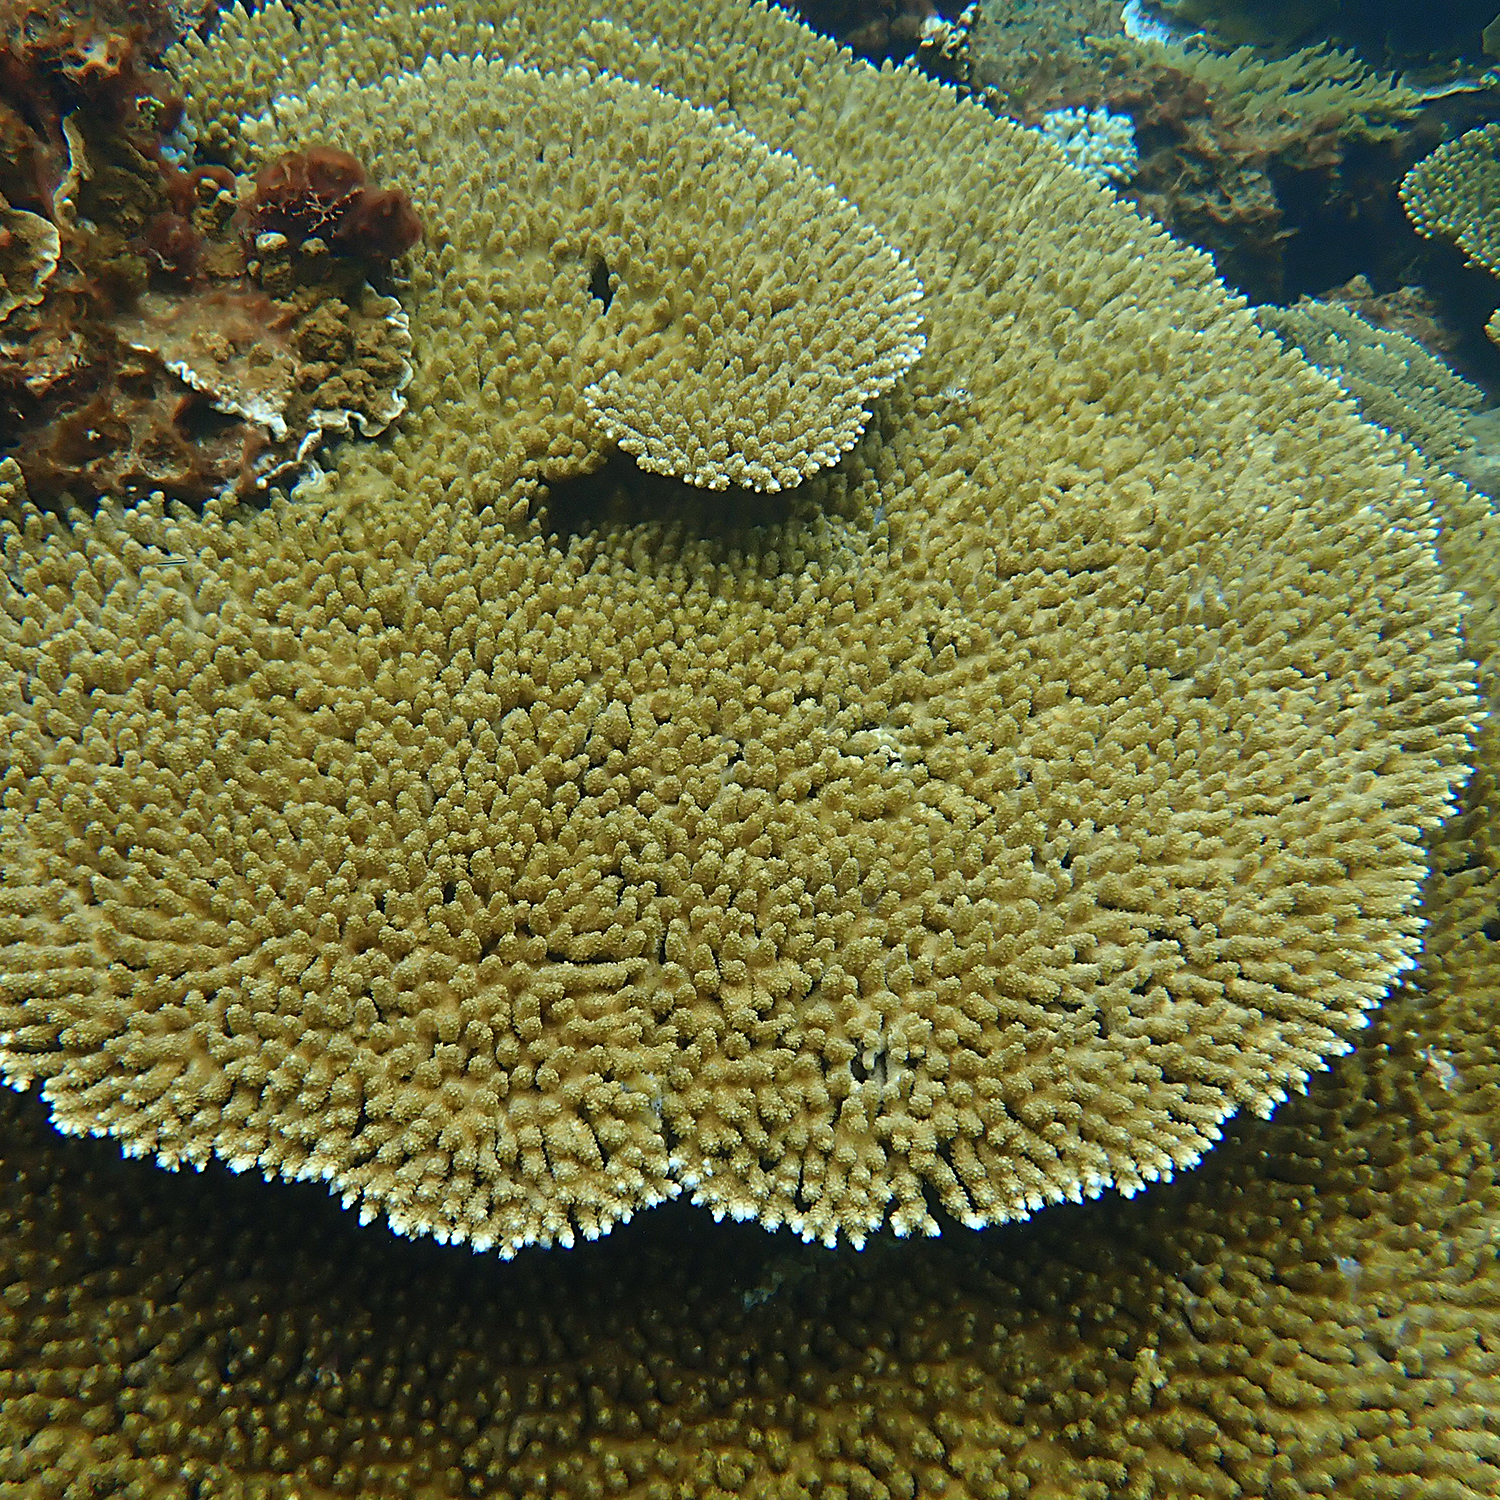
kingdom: Animalia
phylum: Cnidaria
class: Anthozoa
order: Scleractinia
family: Acroporidae
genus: Acropora
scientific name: Acropora solitaryensis
